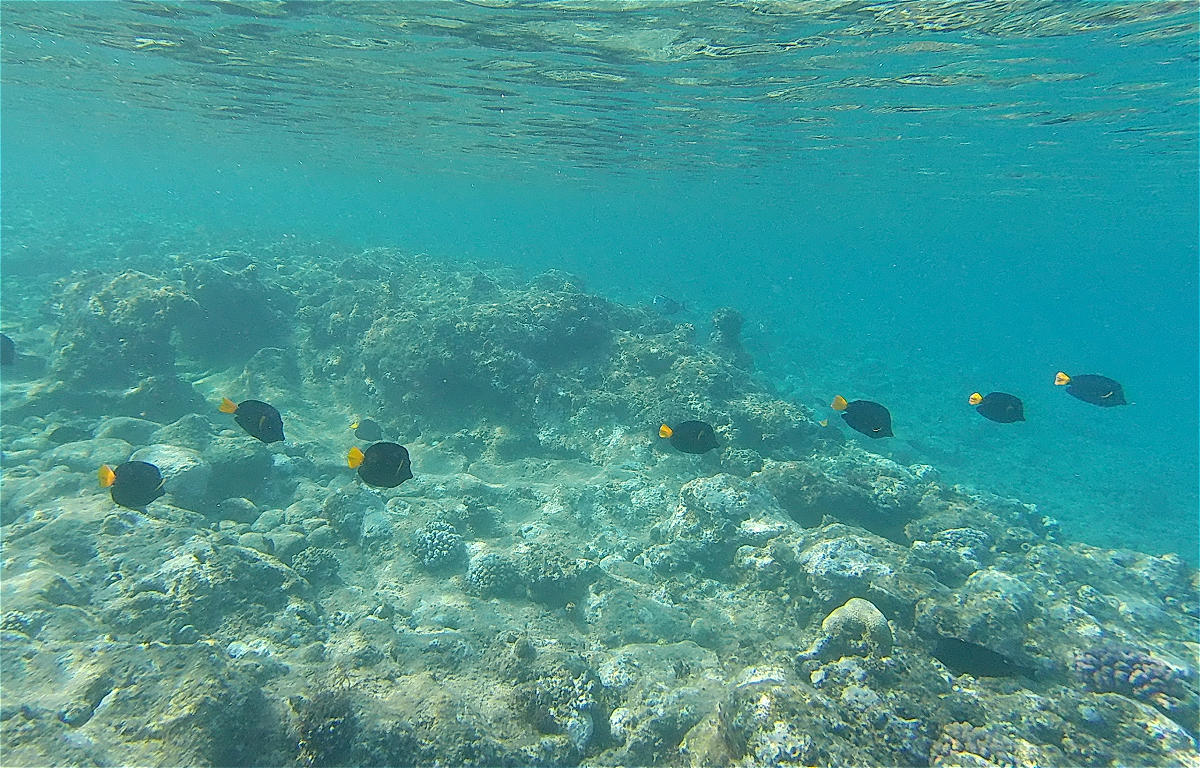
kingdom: Animalia
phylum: Chordata
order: Perciformes
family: Acanthuridae
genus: Zebrasoma
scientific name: Zebrasoma xanthurum
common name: Purple tang
